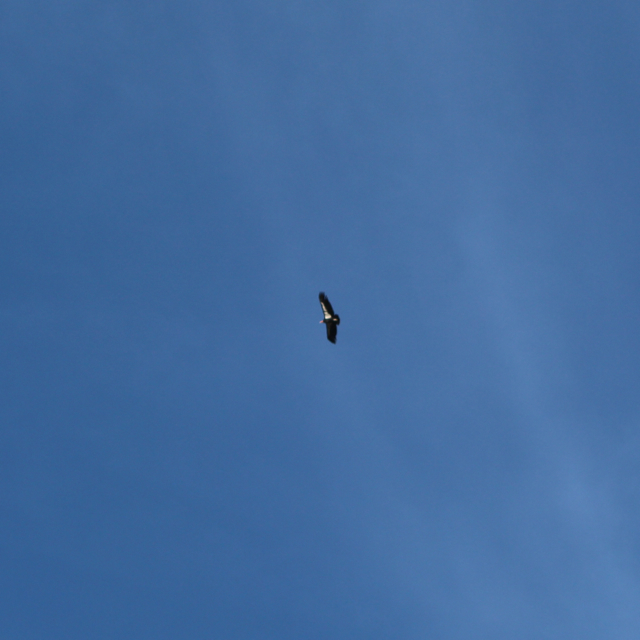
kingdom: Animalia
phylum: Chordata
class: Aves
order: Accipitriformes
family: Cathartidae
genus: Gymnogyps
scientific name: Gymnogyps californianus
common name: California condor
